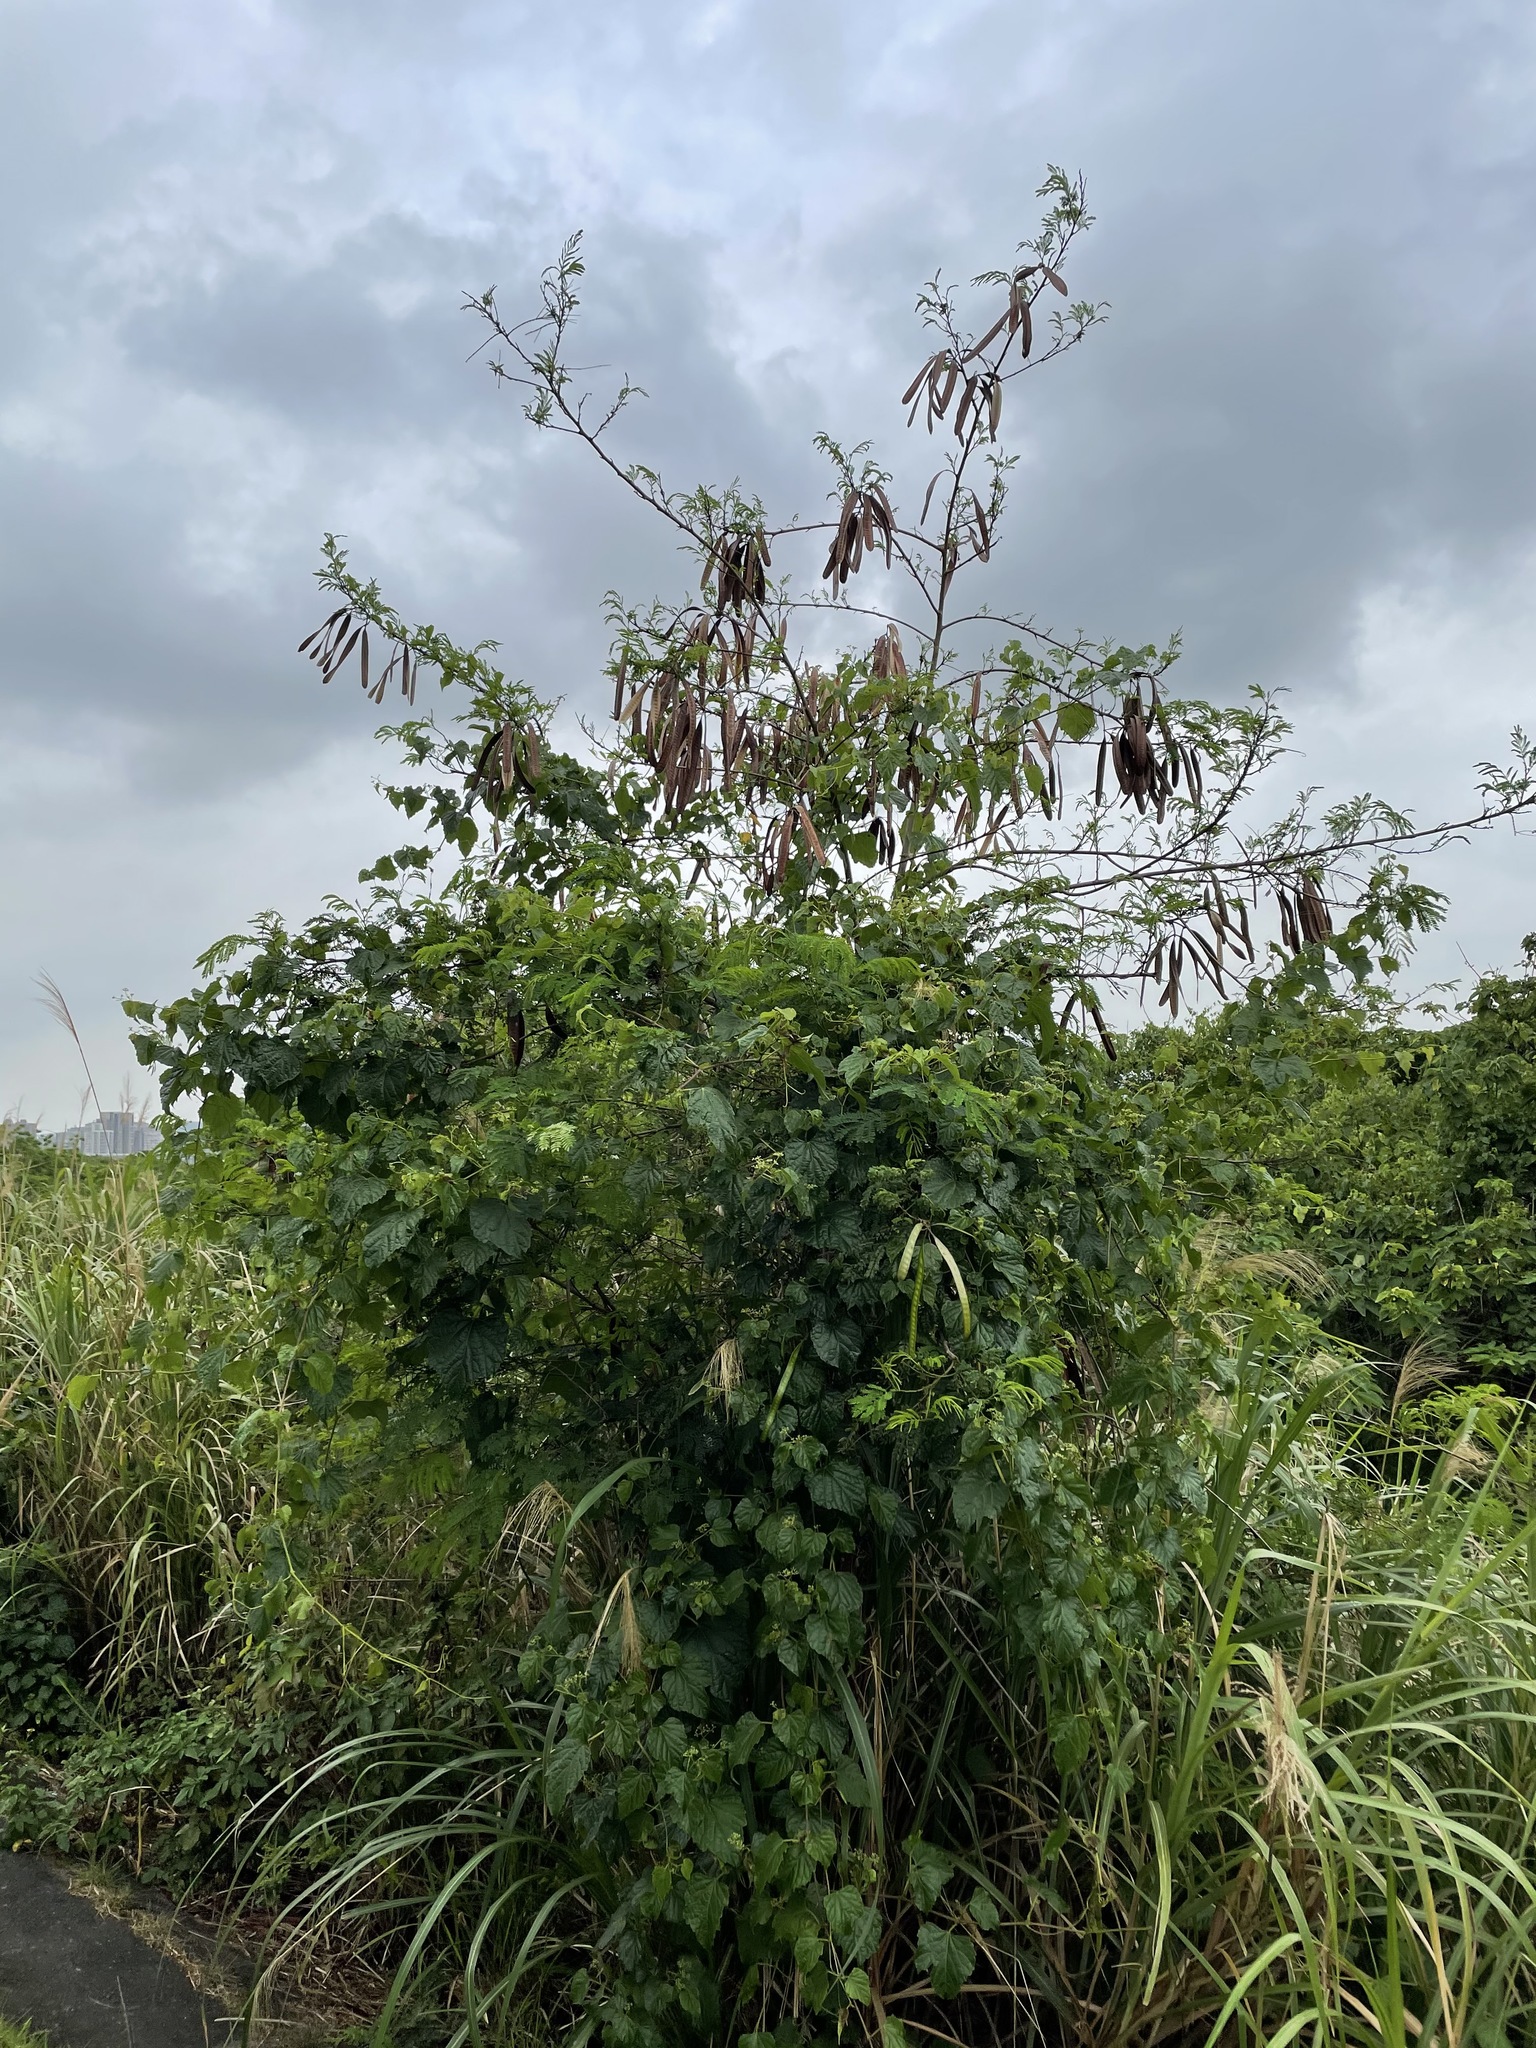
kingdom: Plantae
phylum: Tracheophyta
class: Magnoliopsida
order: Fabales
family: Fabaceae
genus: Leucaena
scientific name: Leucaena leucocephala
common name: White leadtree
